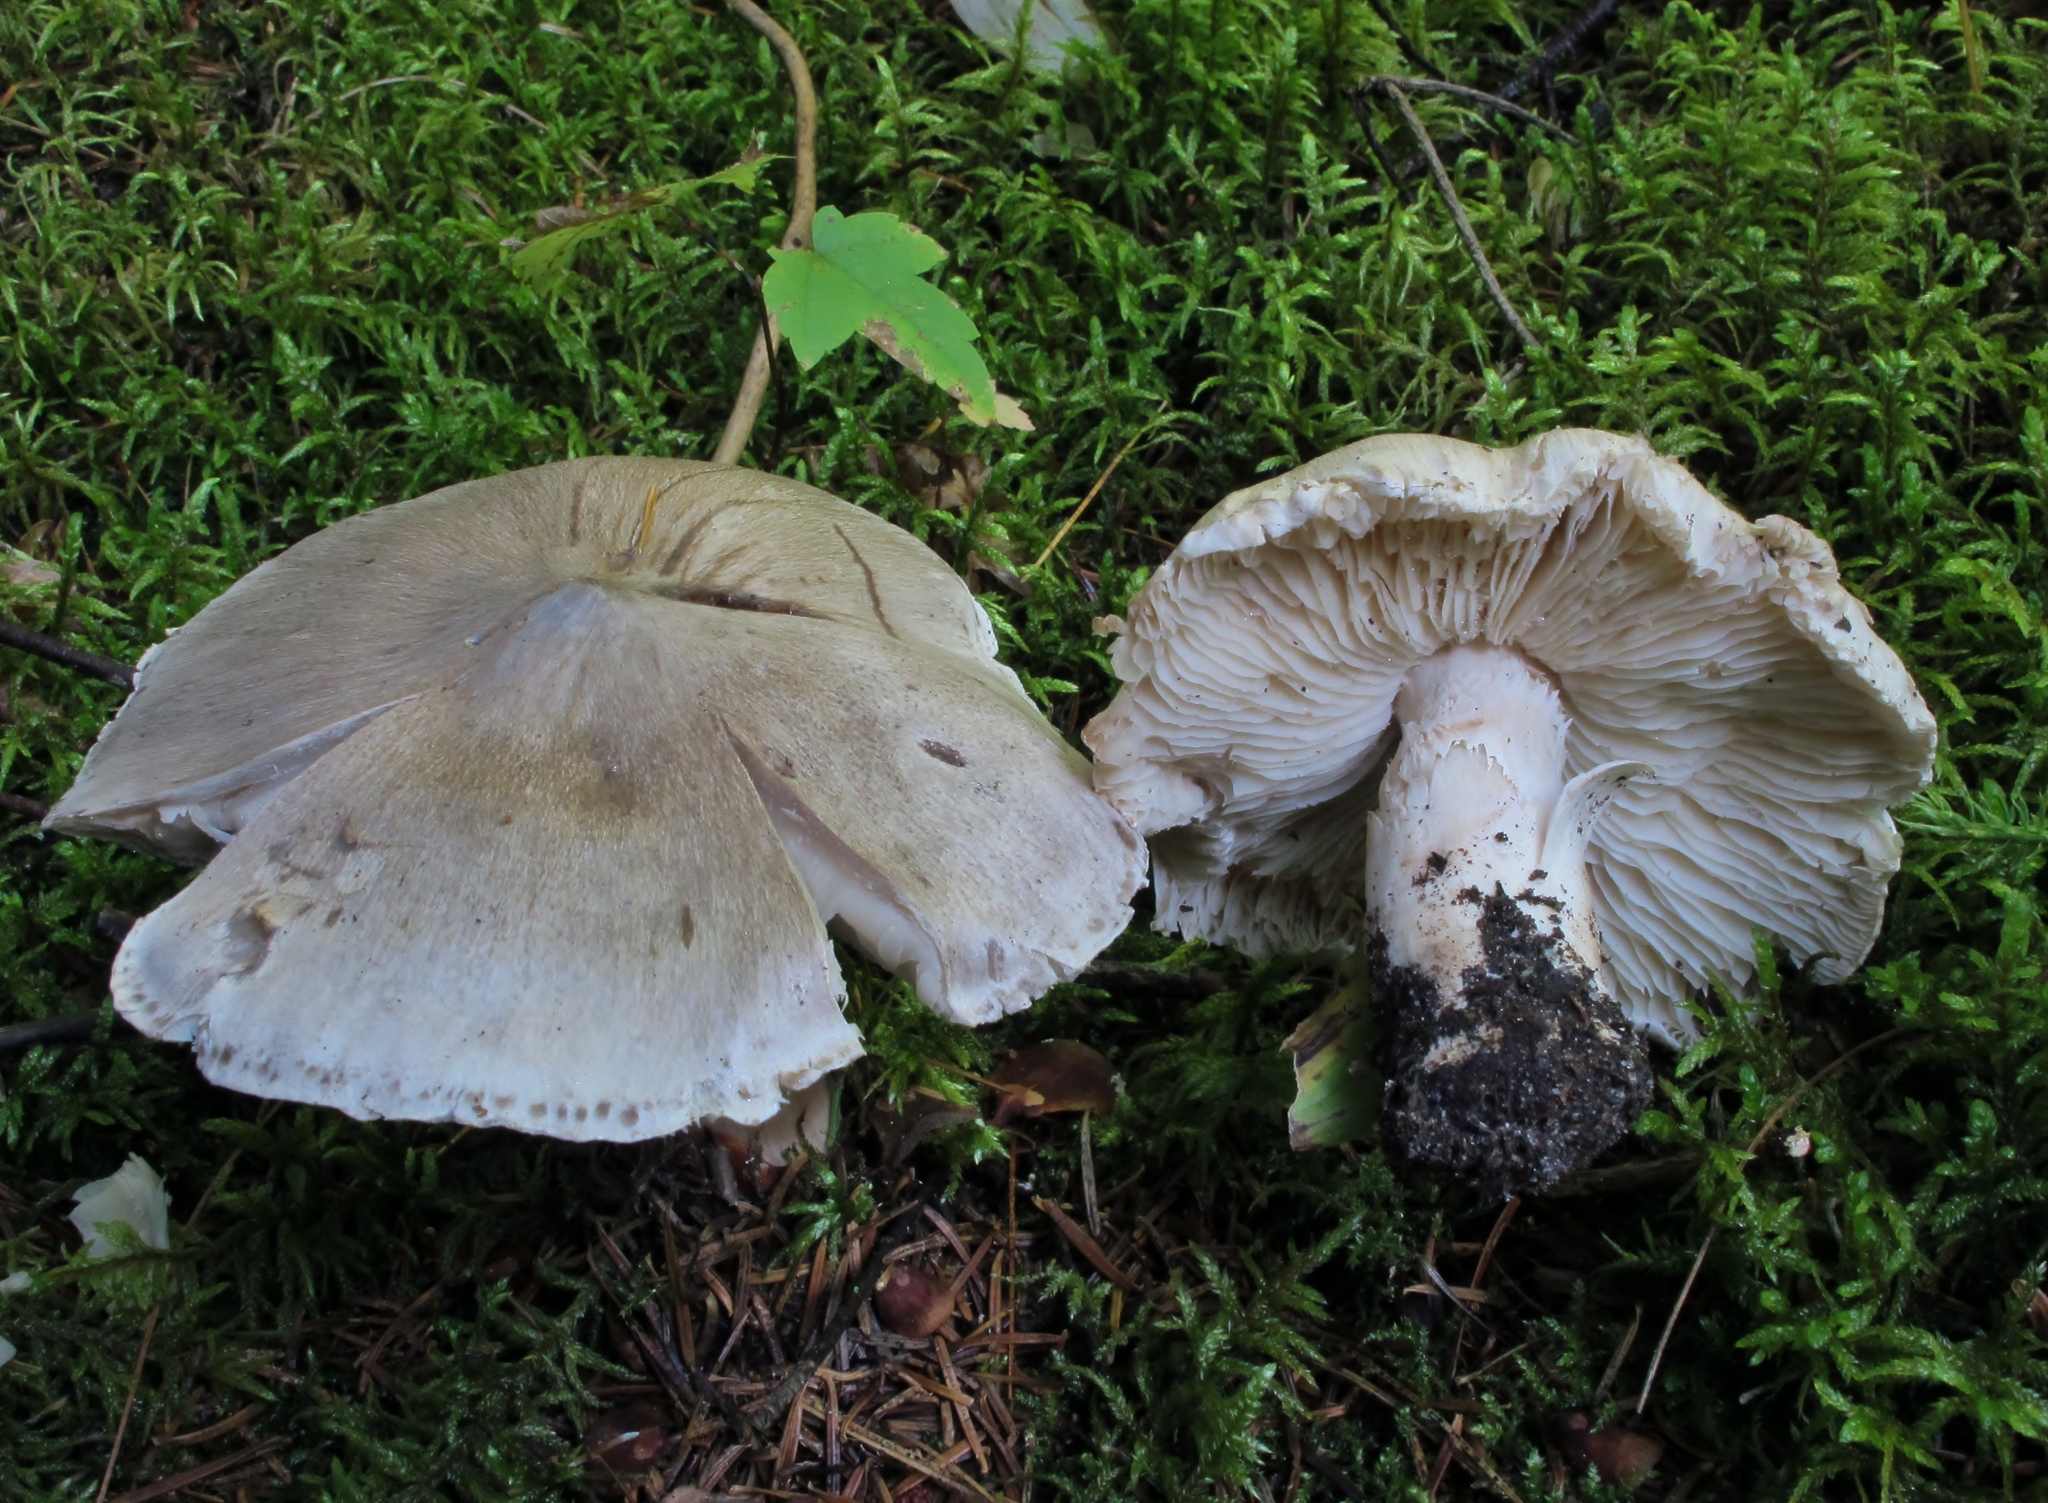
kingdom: Fungi
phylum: Basidiomycota
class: Agaricomycetes
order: Agaricales
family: Tricholomataceae
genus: Tricholoma
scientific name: Tricholoma virgatum
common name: Ashen knight
